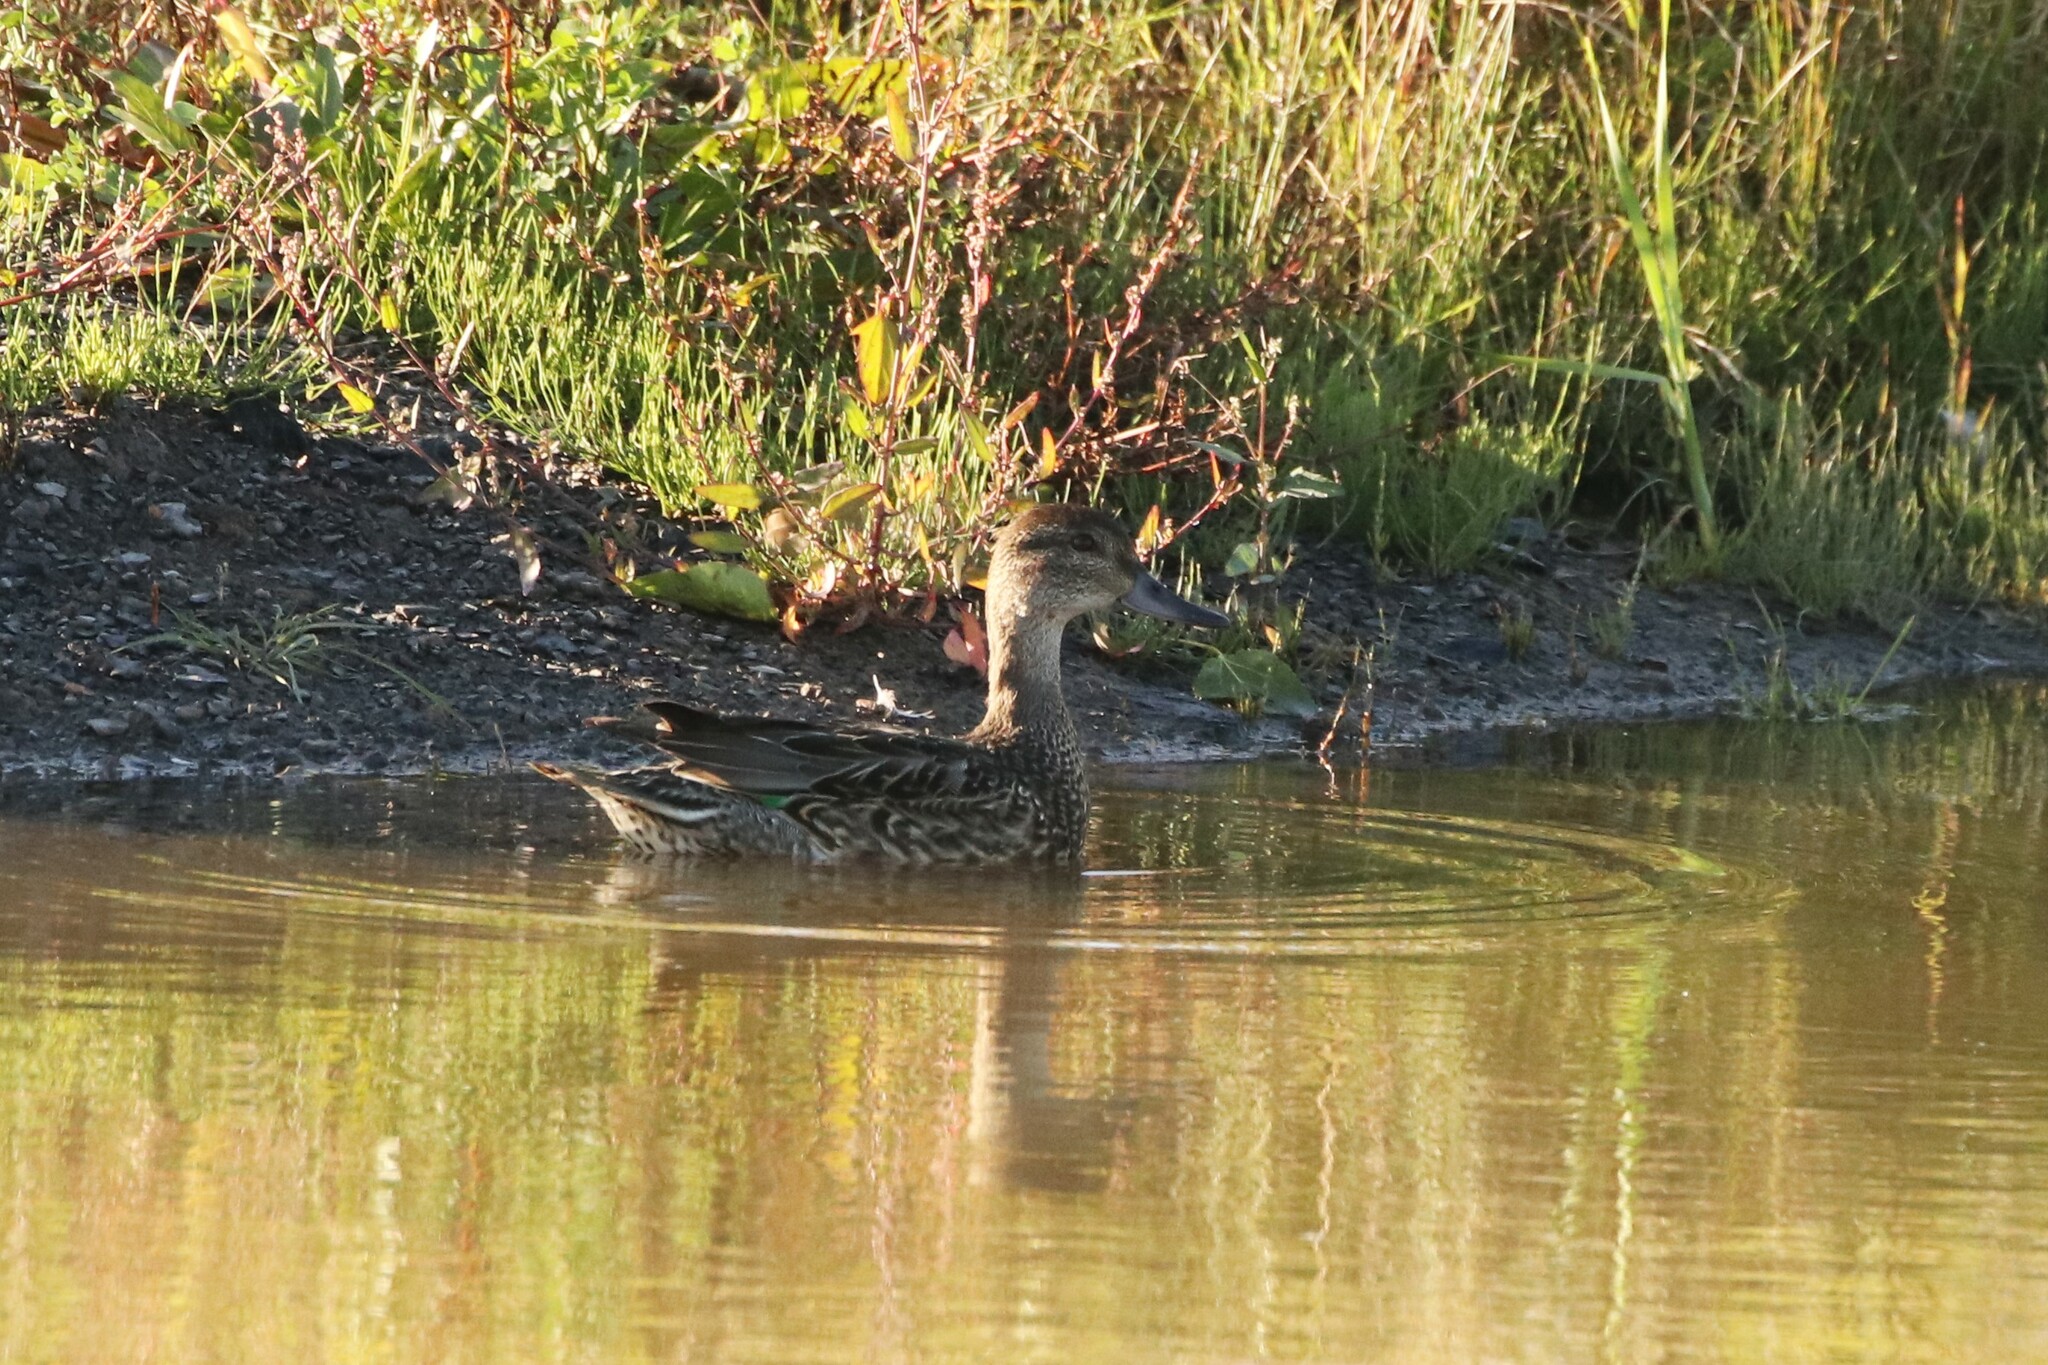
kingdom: Animalia
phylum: Chordata
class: Aves
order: Anseriformes
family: Anatidae
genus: Anas
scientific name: Anas crecca
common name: Eurasian teal
